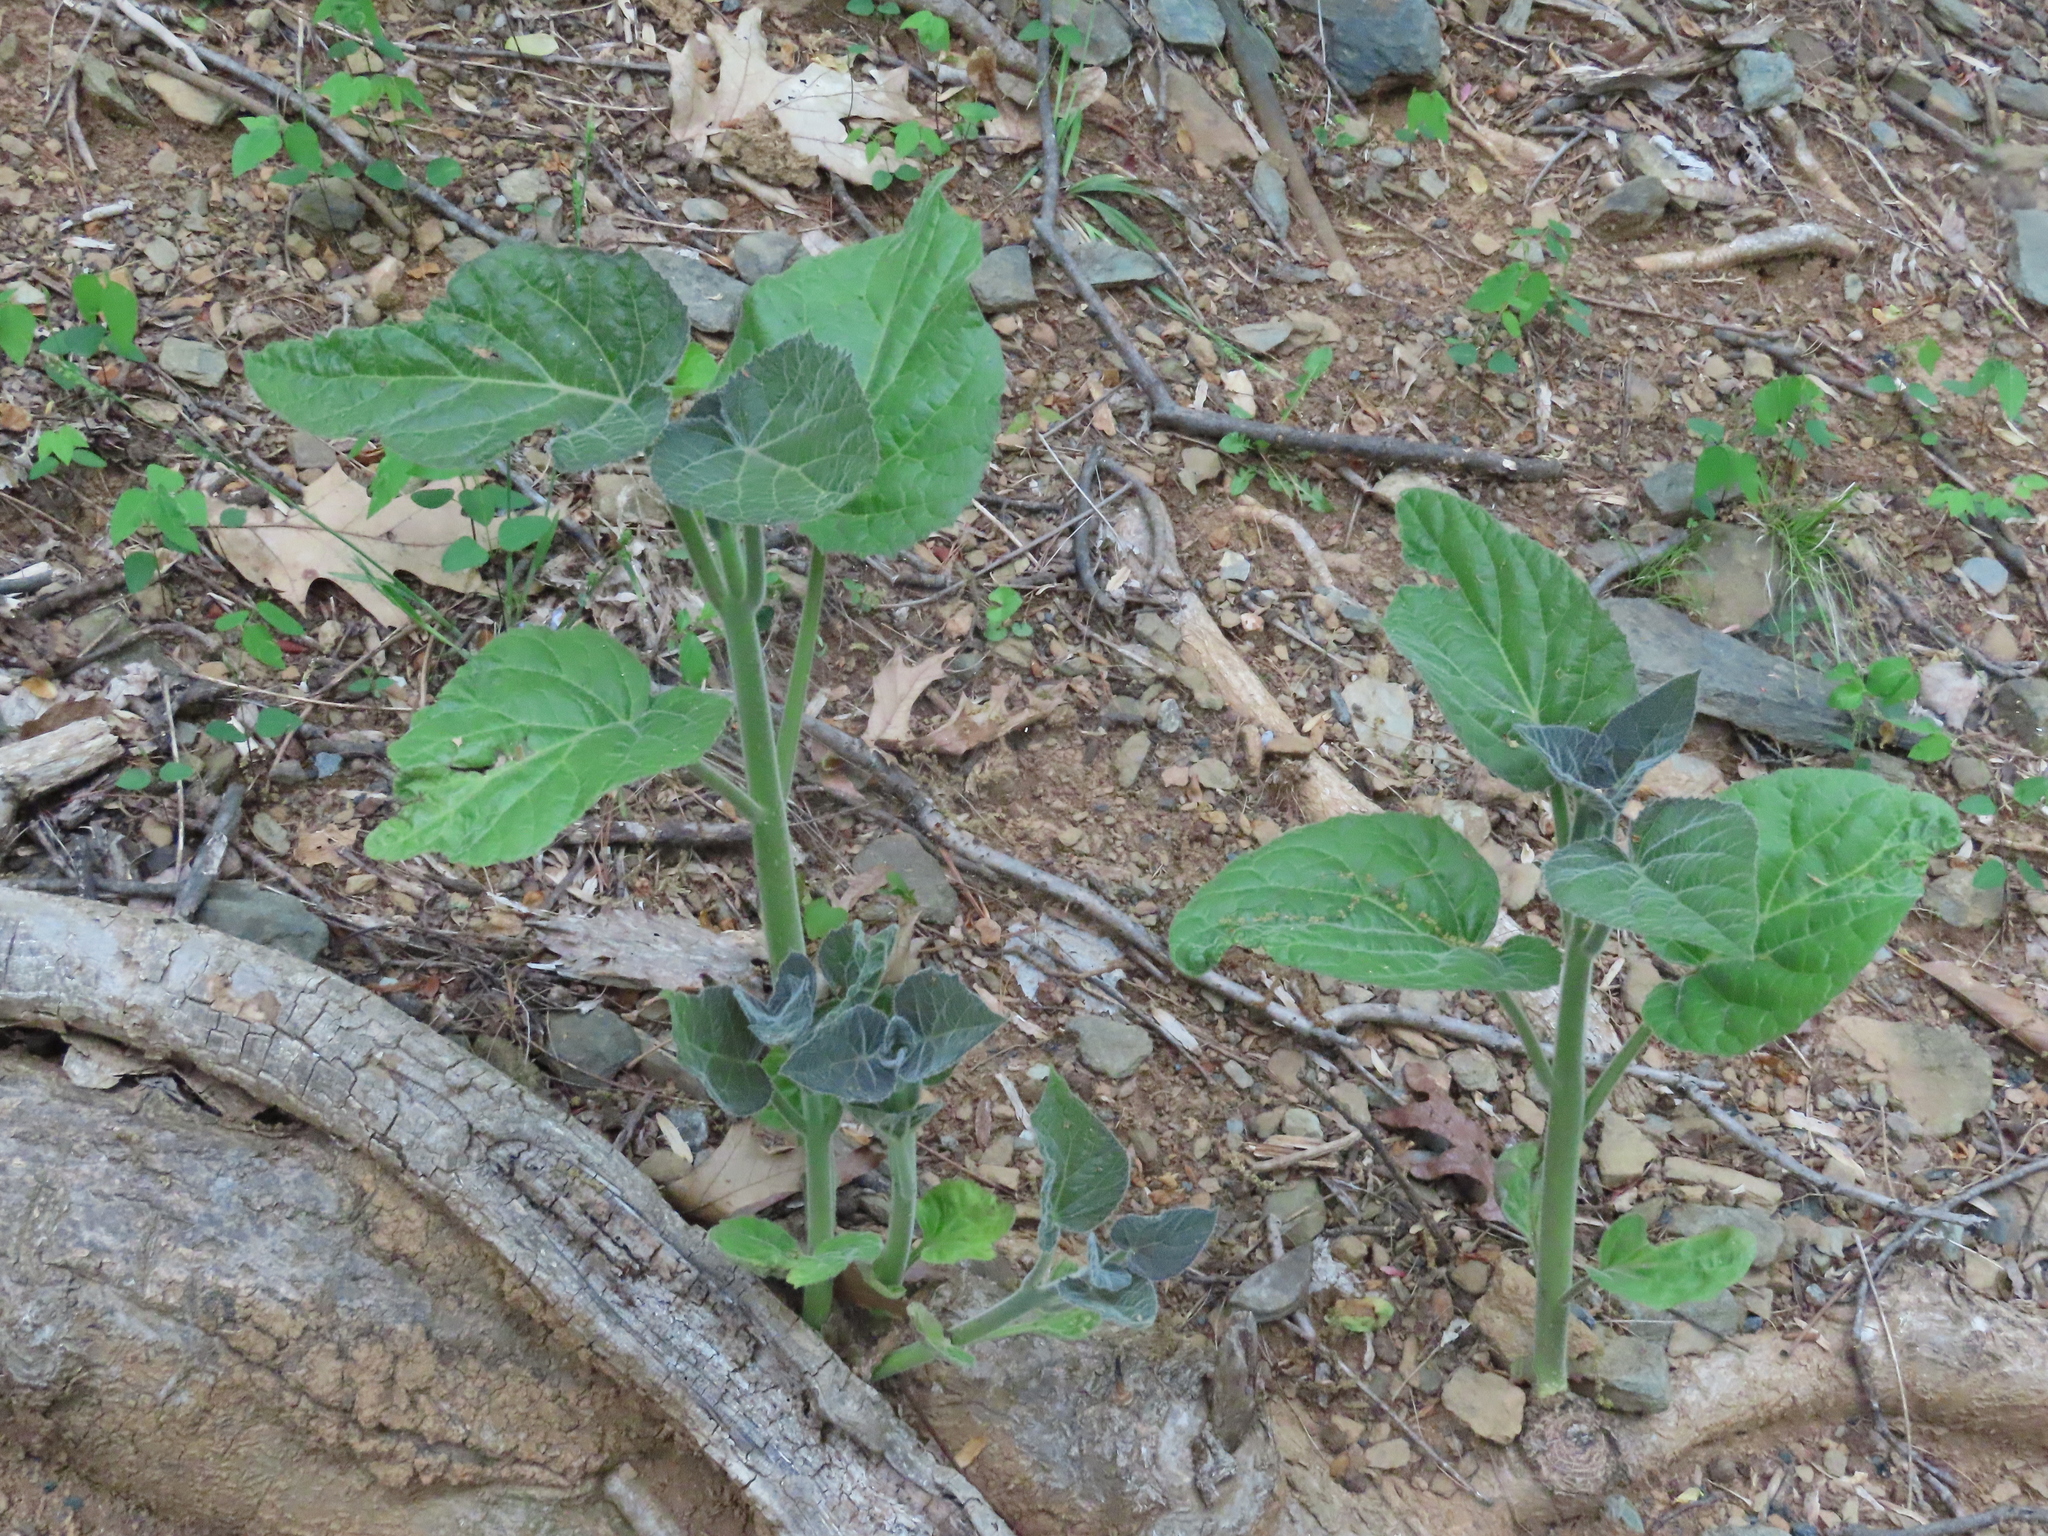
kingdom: Plantae
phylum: Tracheophyta
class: Magnoliopsida
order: Lamiales
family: Paulowniaceae
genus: Paulownia
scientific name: Paulownia tomentosa
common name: Foxglove-tree
